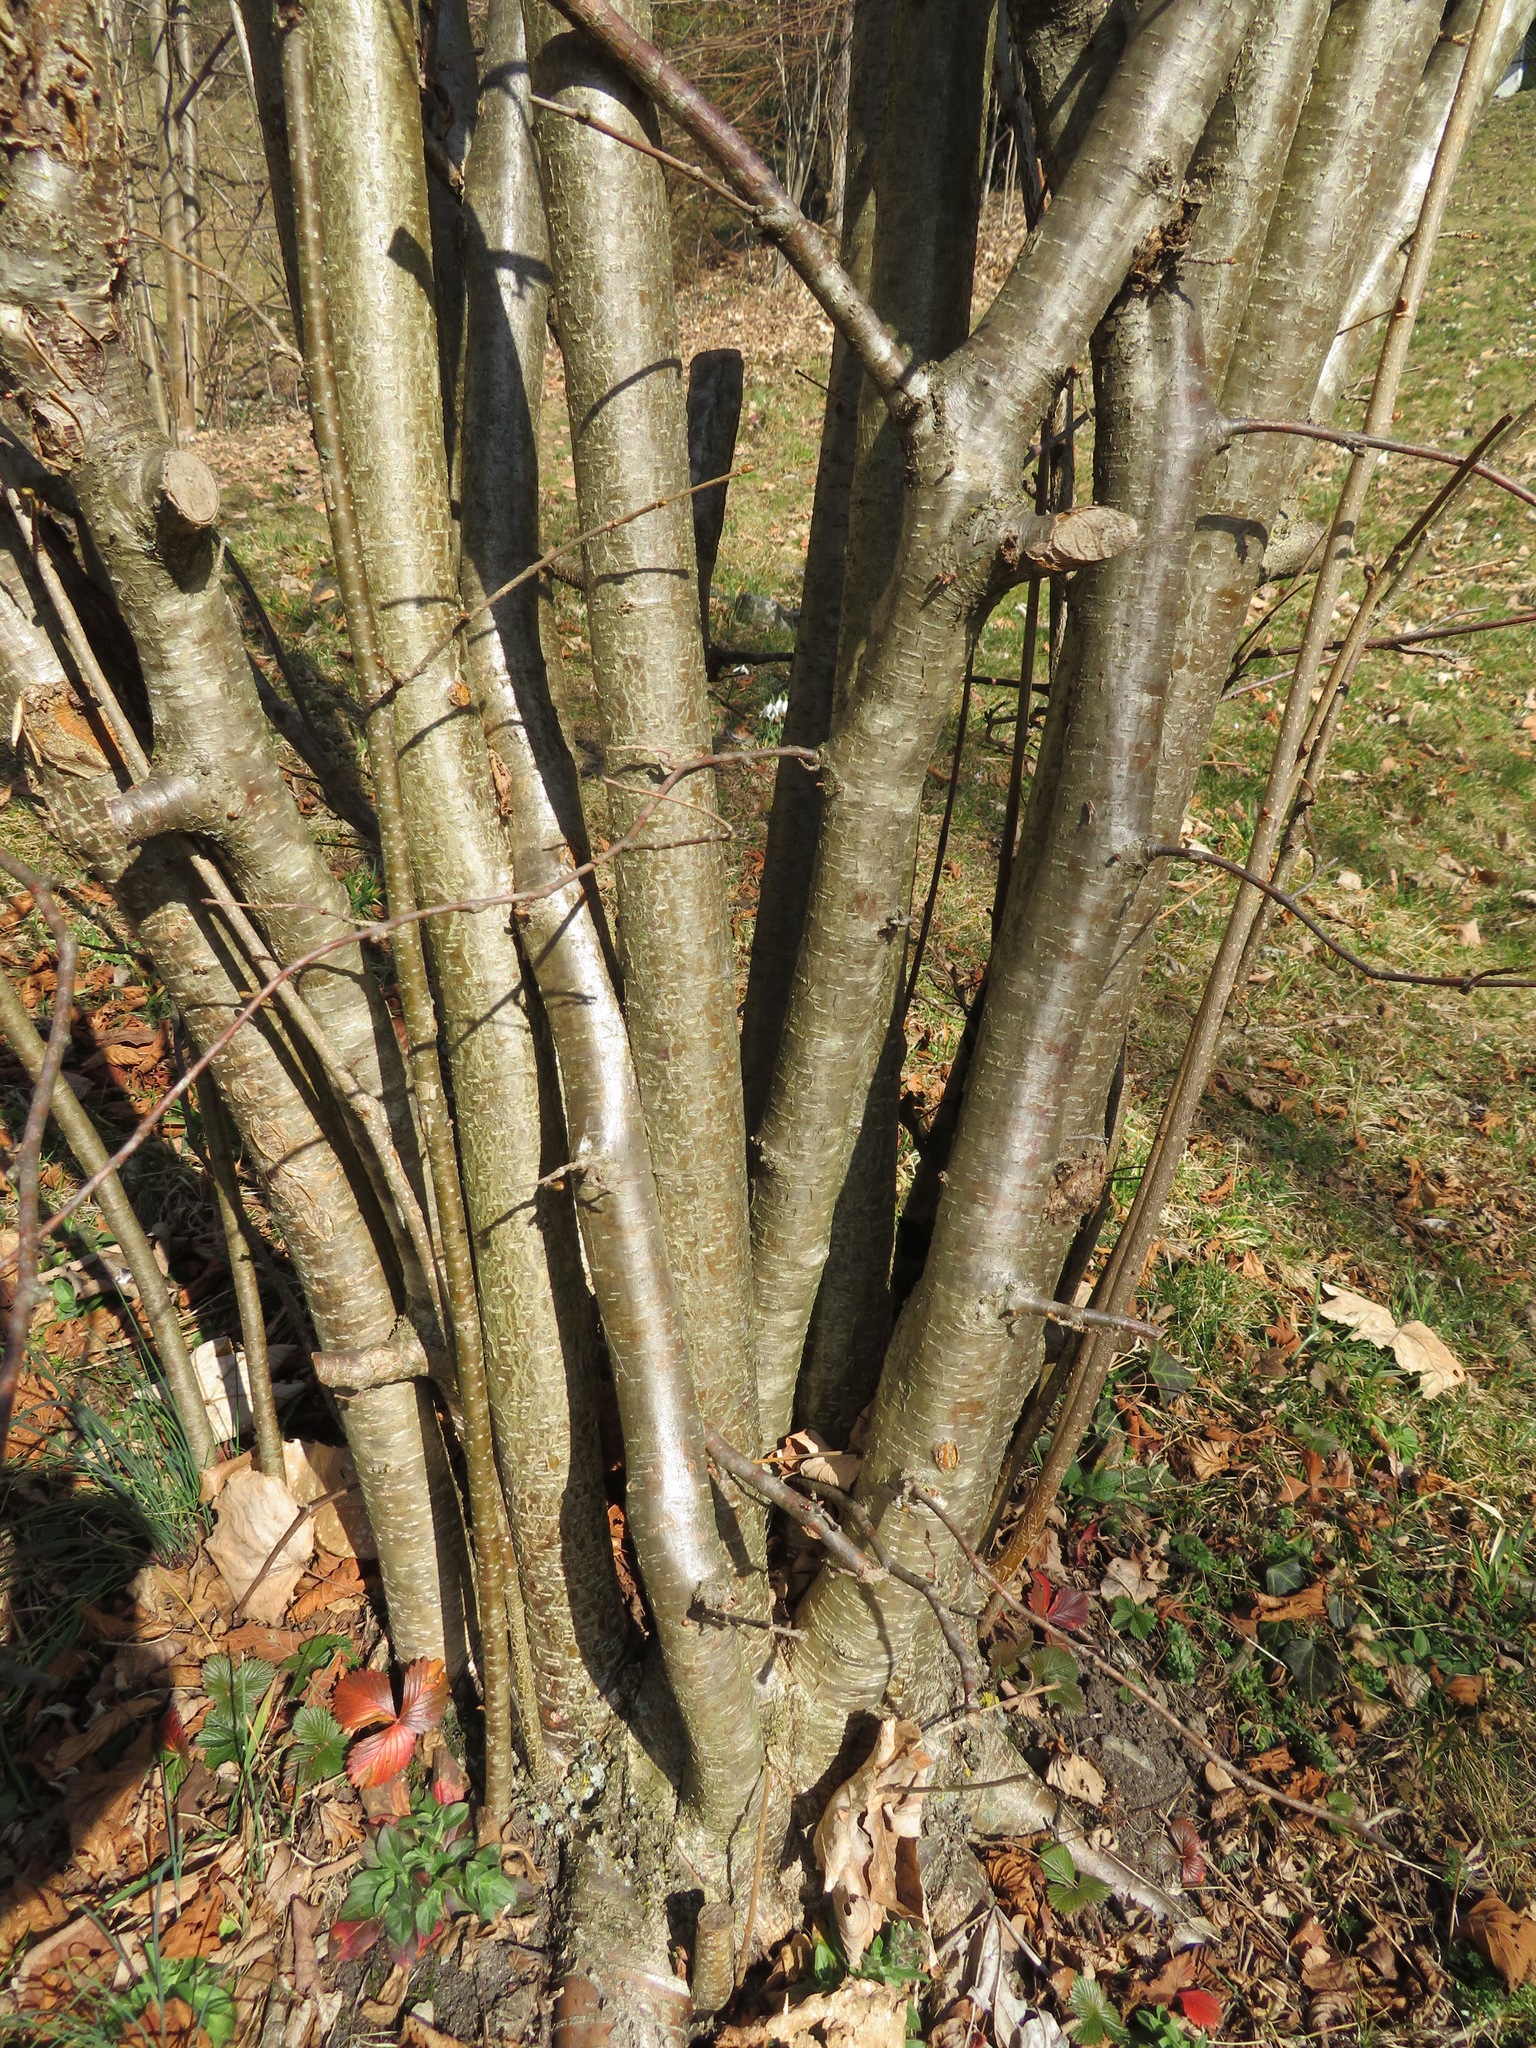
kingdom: Plantae
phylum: Tracheophyta
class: Magnoliopsida
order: Fagales
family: Betulaceae
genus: Corylus
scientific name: Corylus avellana
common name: European hazel
